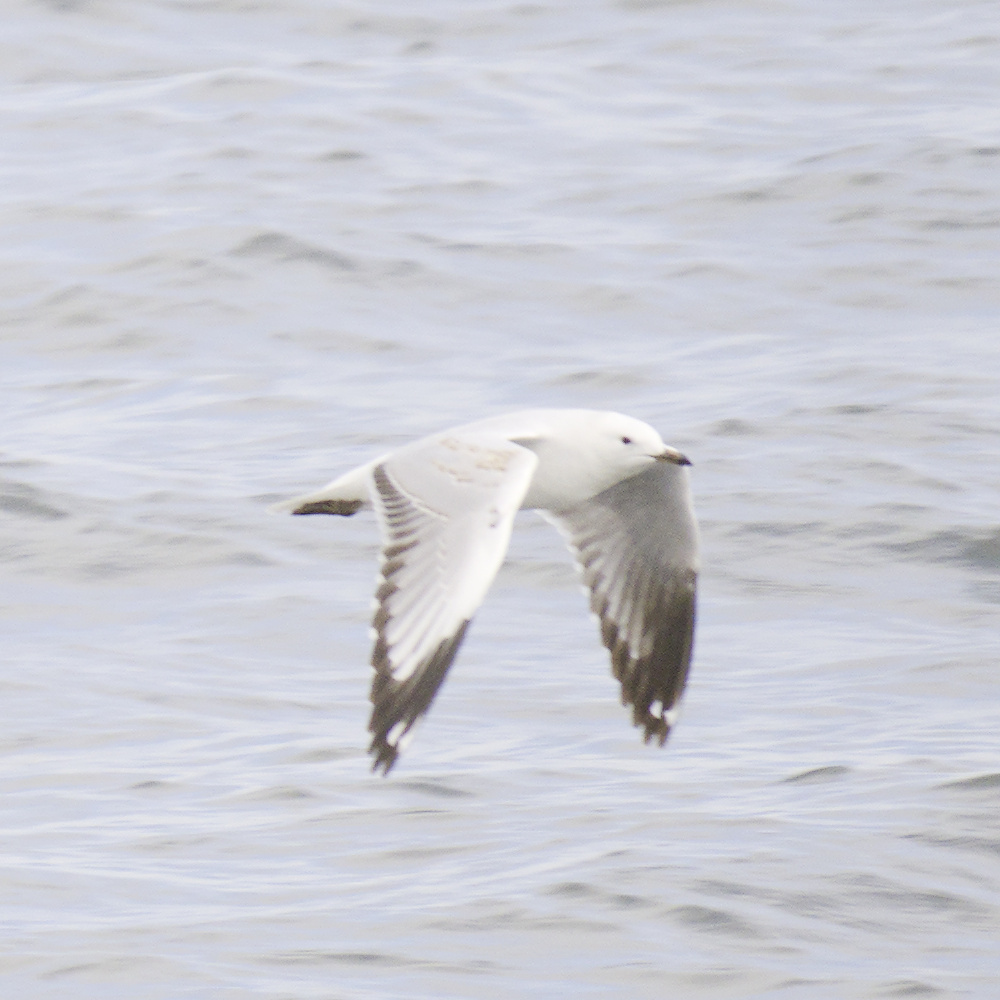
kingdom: Animalia
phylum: Chordata
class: Aves
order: Charadriiformes
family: Laridae
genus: Chroicocephalus
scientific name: Chroicocephalus novaehollandiae
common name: Silver gull
